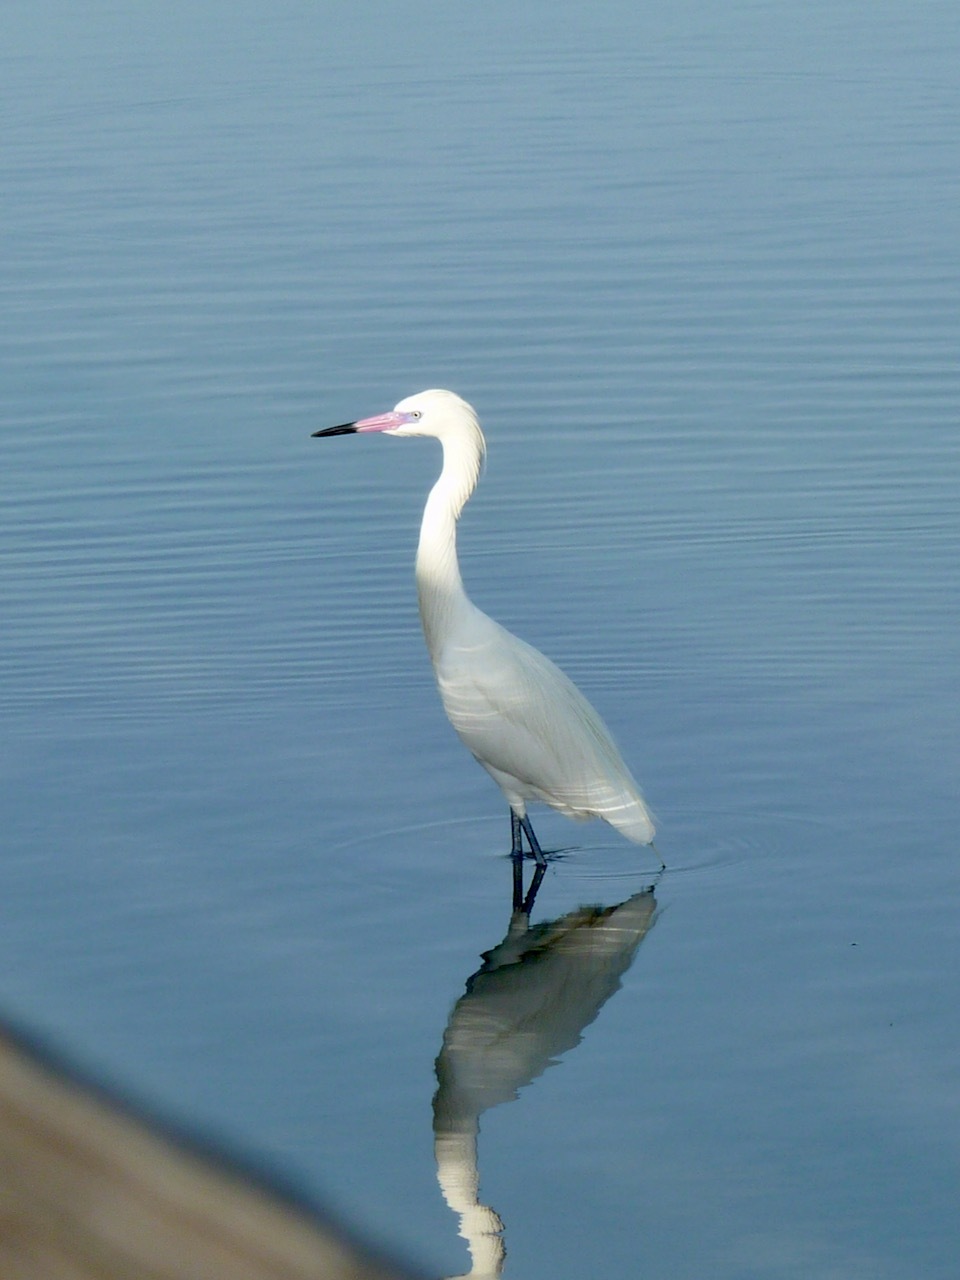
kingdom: Animalia
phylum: Chordata
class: Aves
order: Pelecaniformes
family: Ardeidae
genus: Egretta
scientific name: Egretta rufescens
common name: Reddish egret
